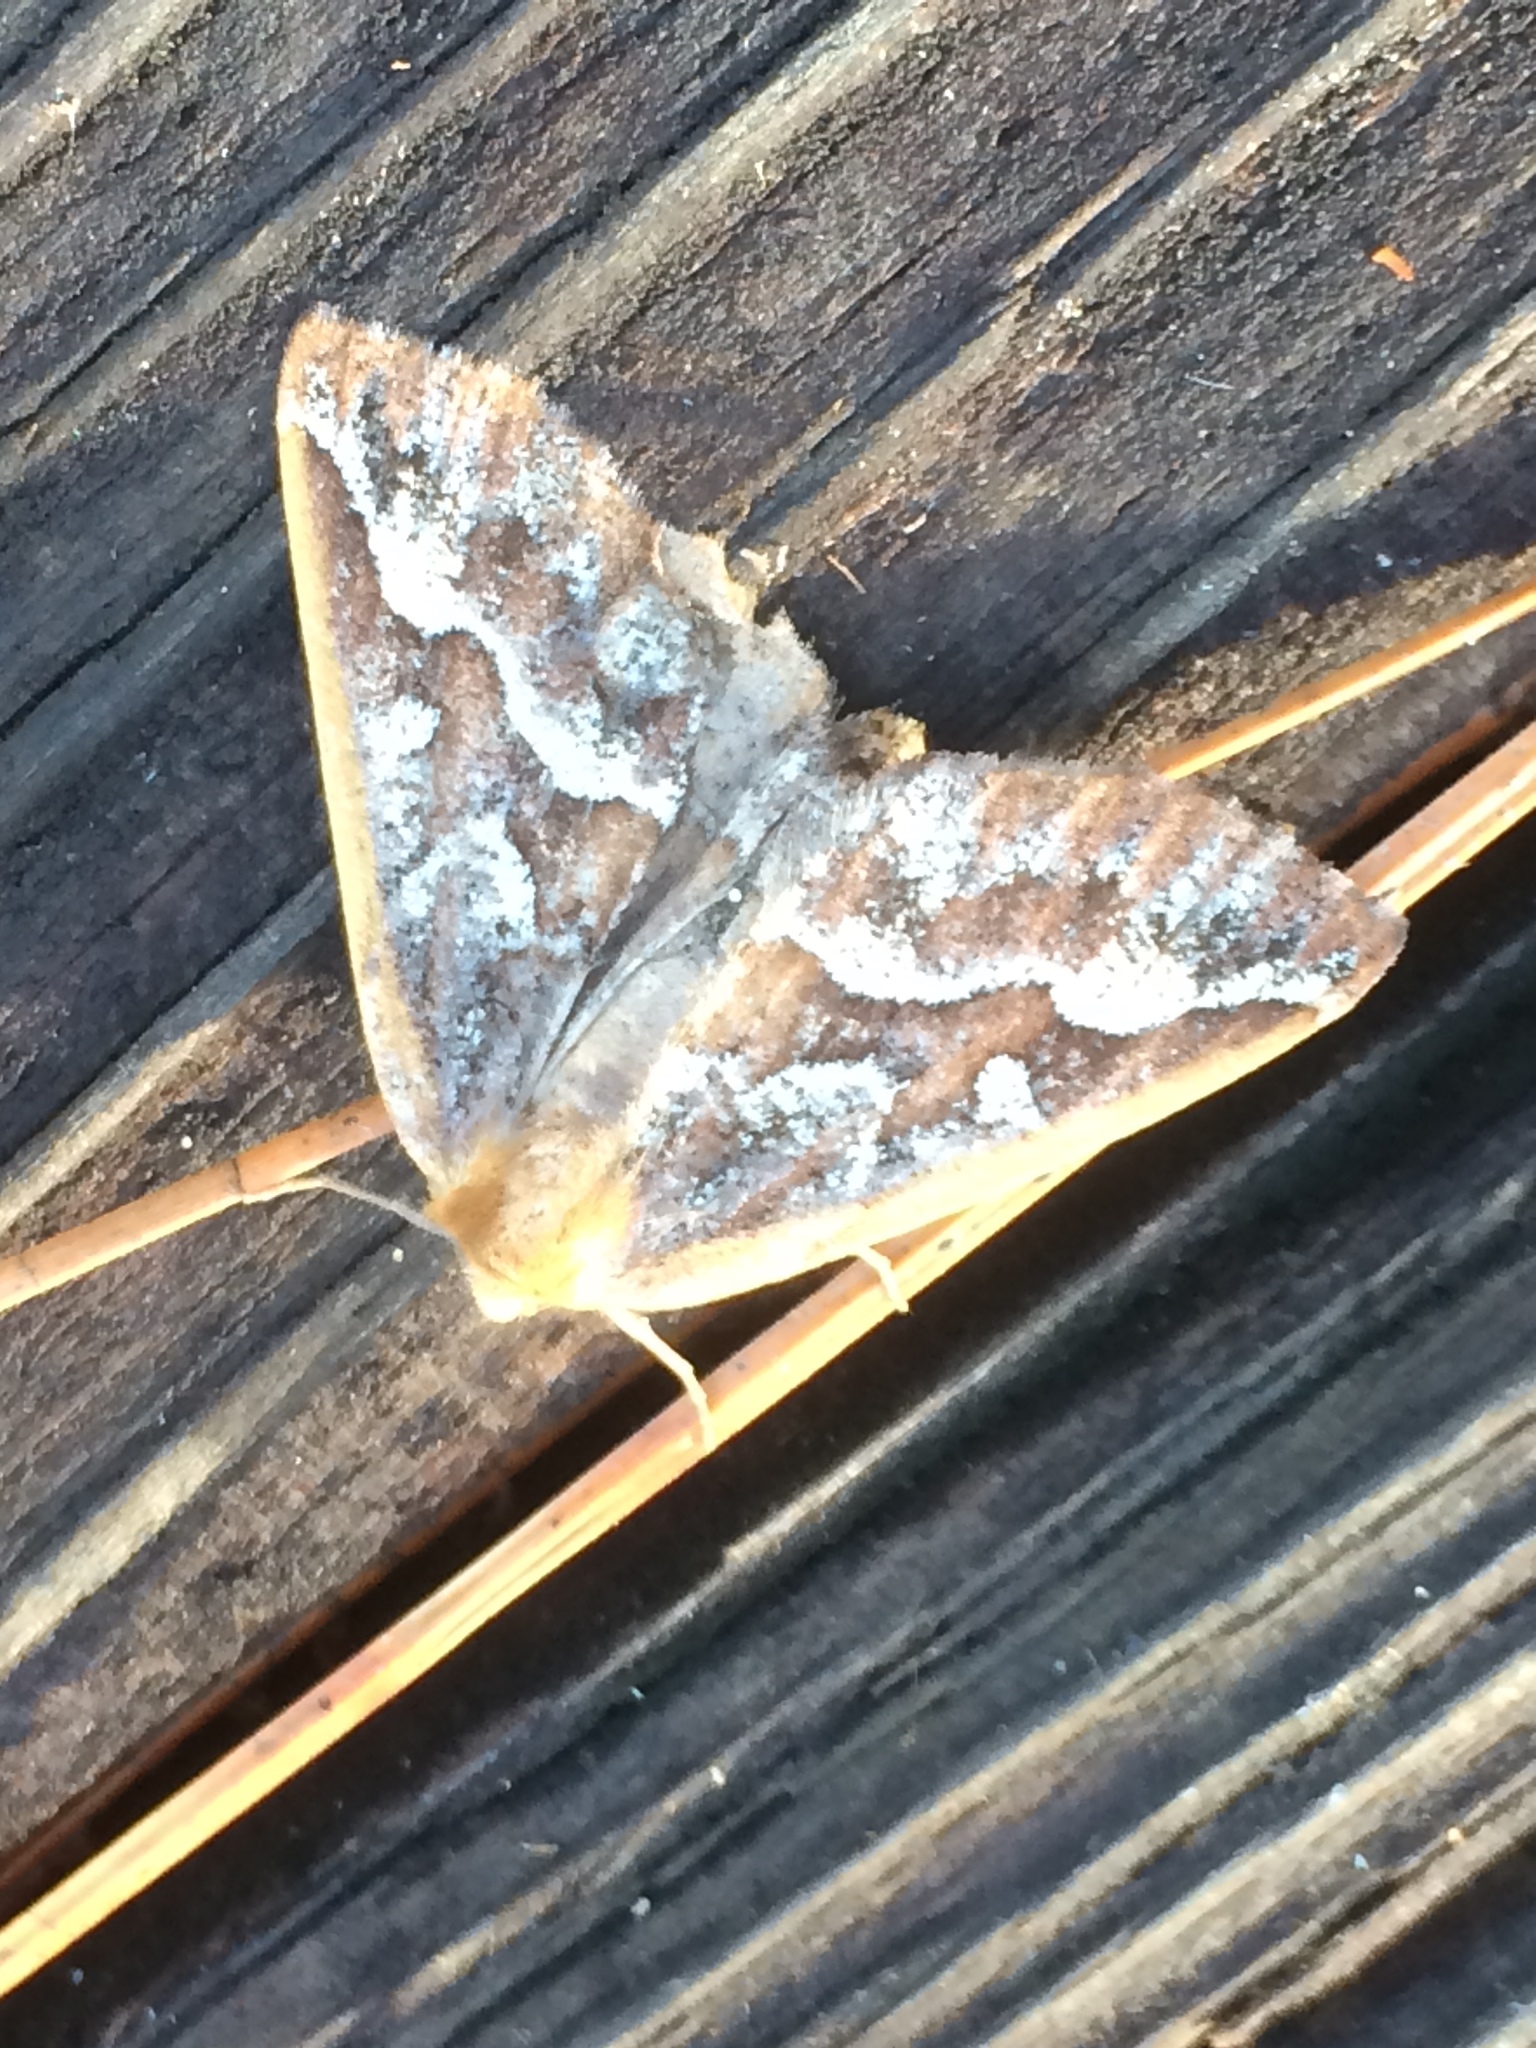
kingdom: Animalia
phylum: Arthropoda
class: Insecta
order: Lepidoptera
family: Geometridae
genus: Caripeta
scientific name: Caripeta aretaria
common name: Southern pine looper moth
